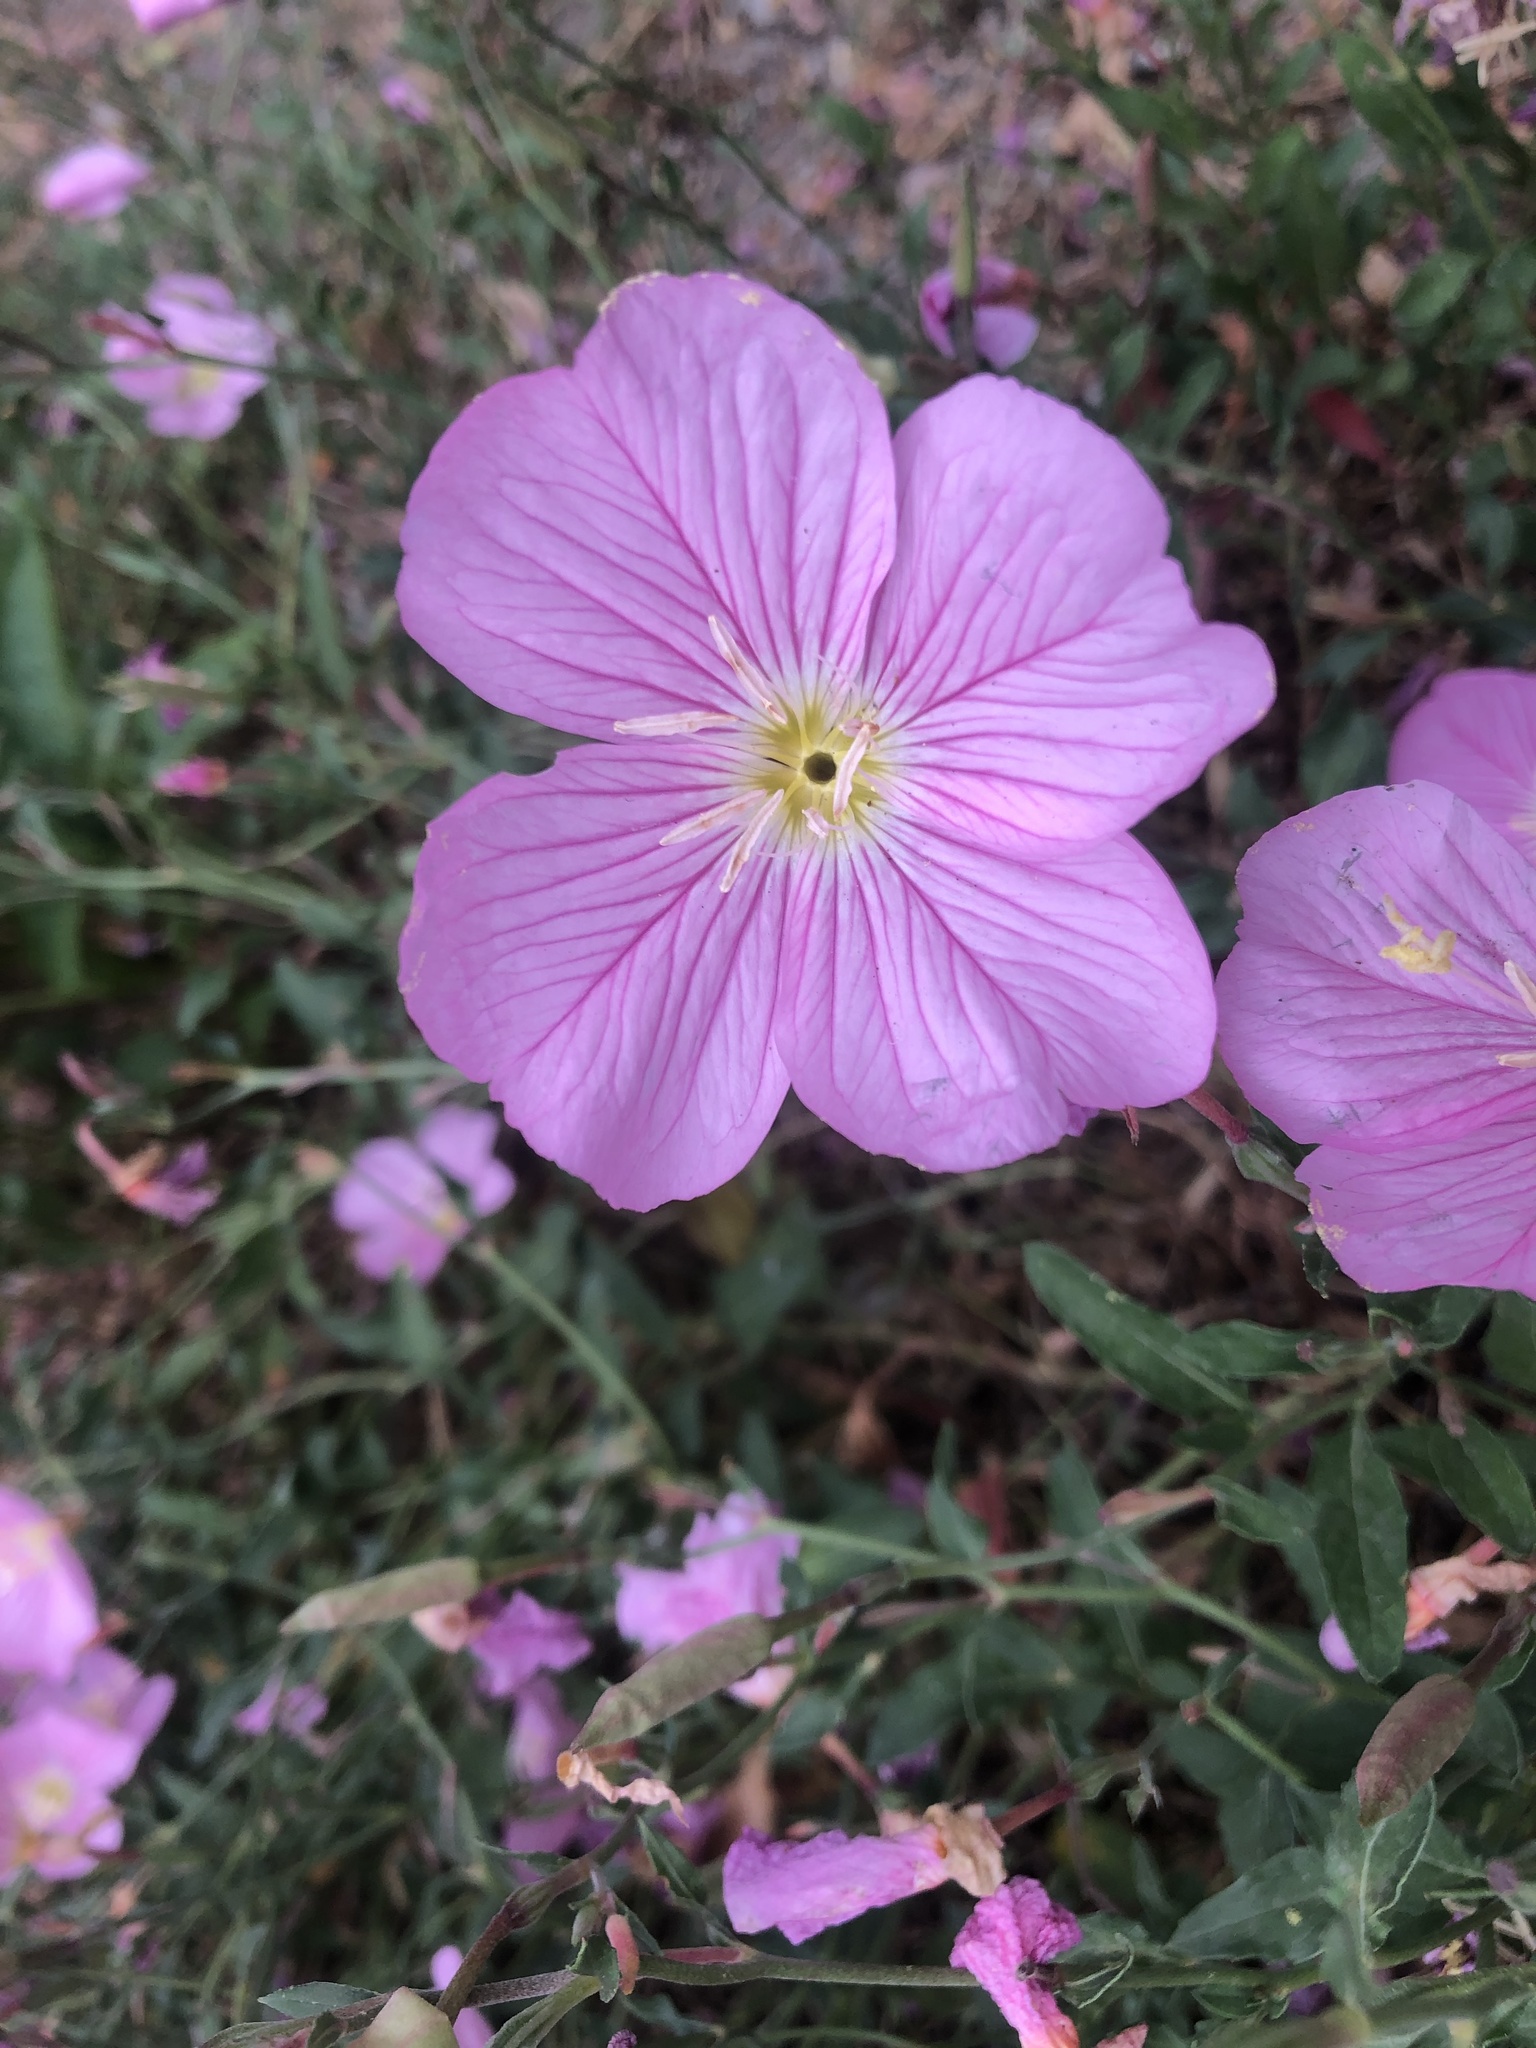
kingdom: Plantae
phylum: Tracheophyta
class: Magnoliopsida
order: Myrtales
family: Onagraceae
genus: Oenothera
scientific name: Oenothera speciosa
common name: White evening-primrose
